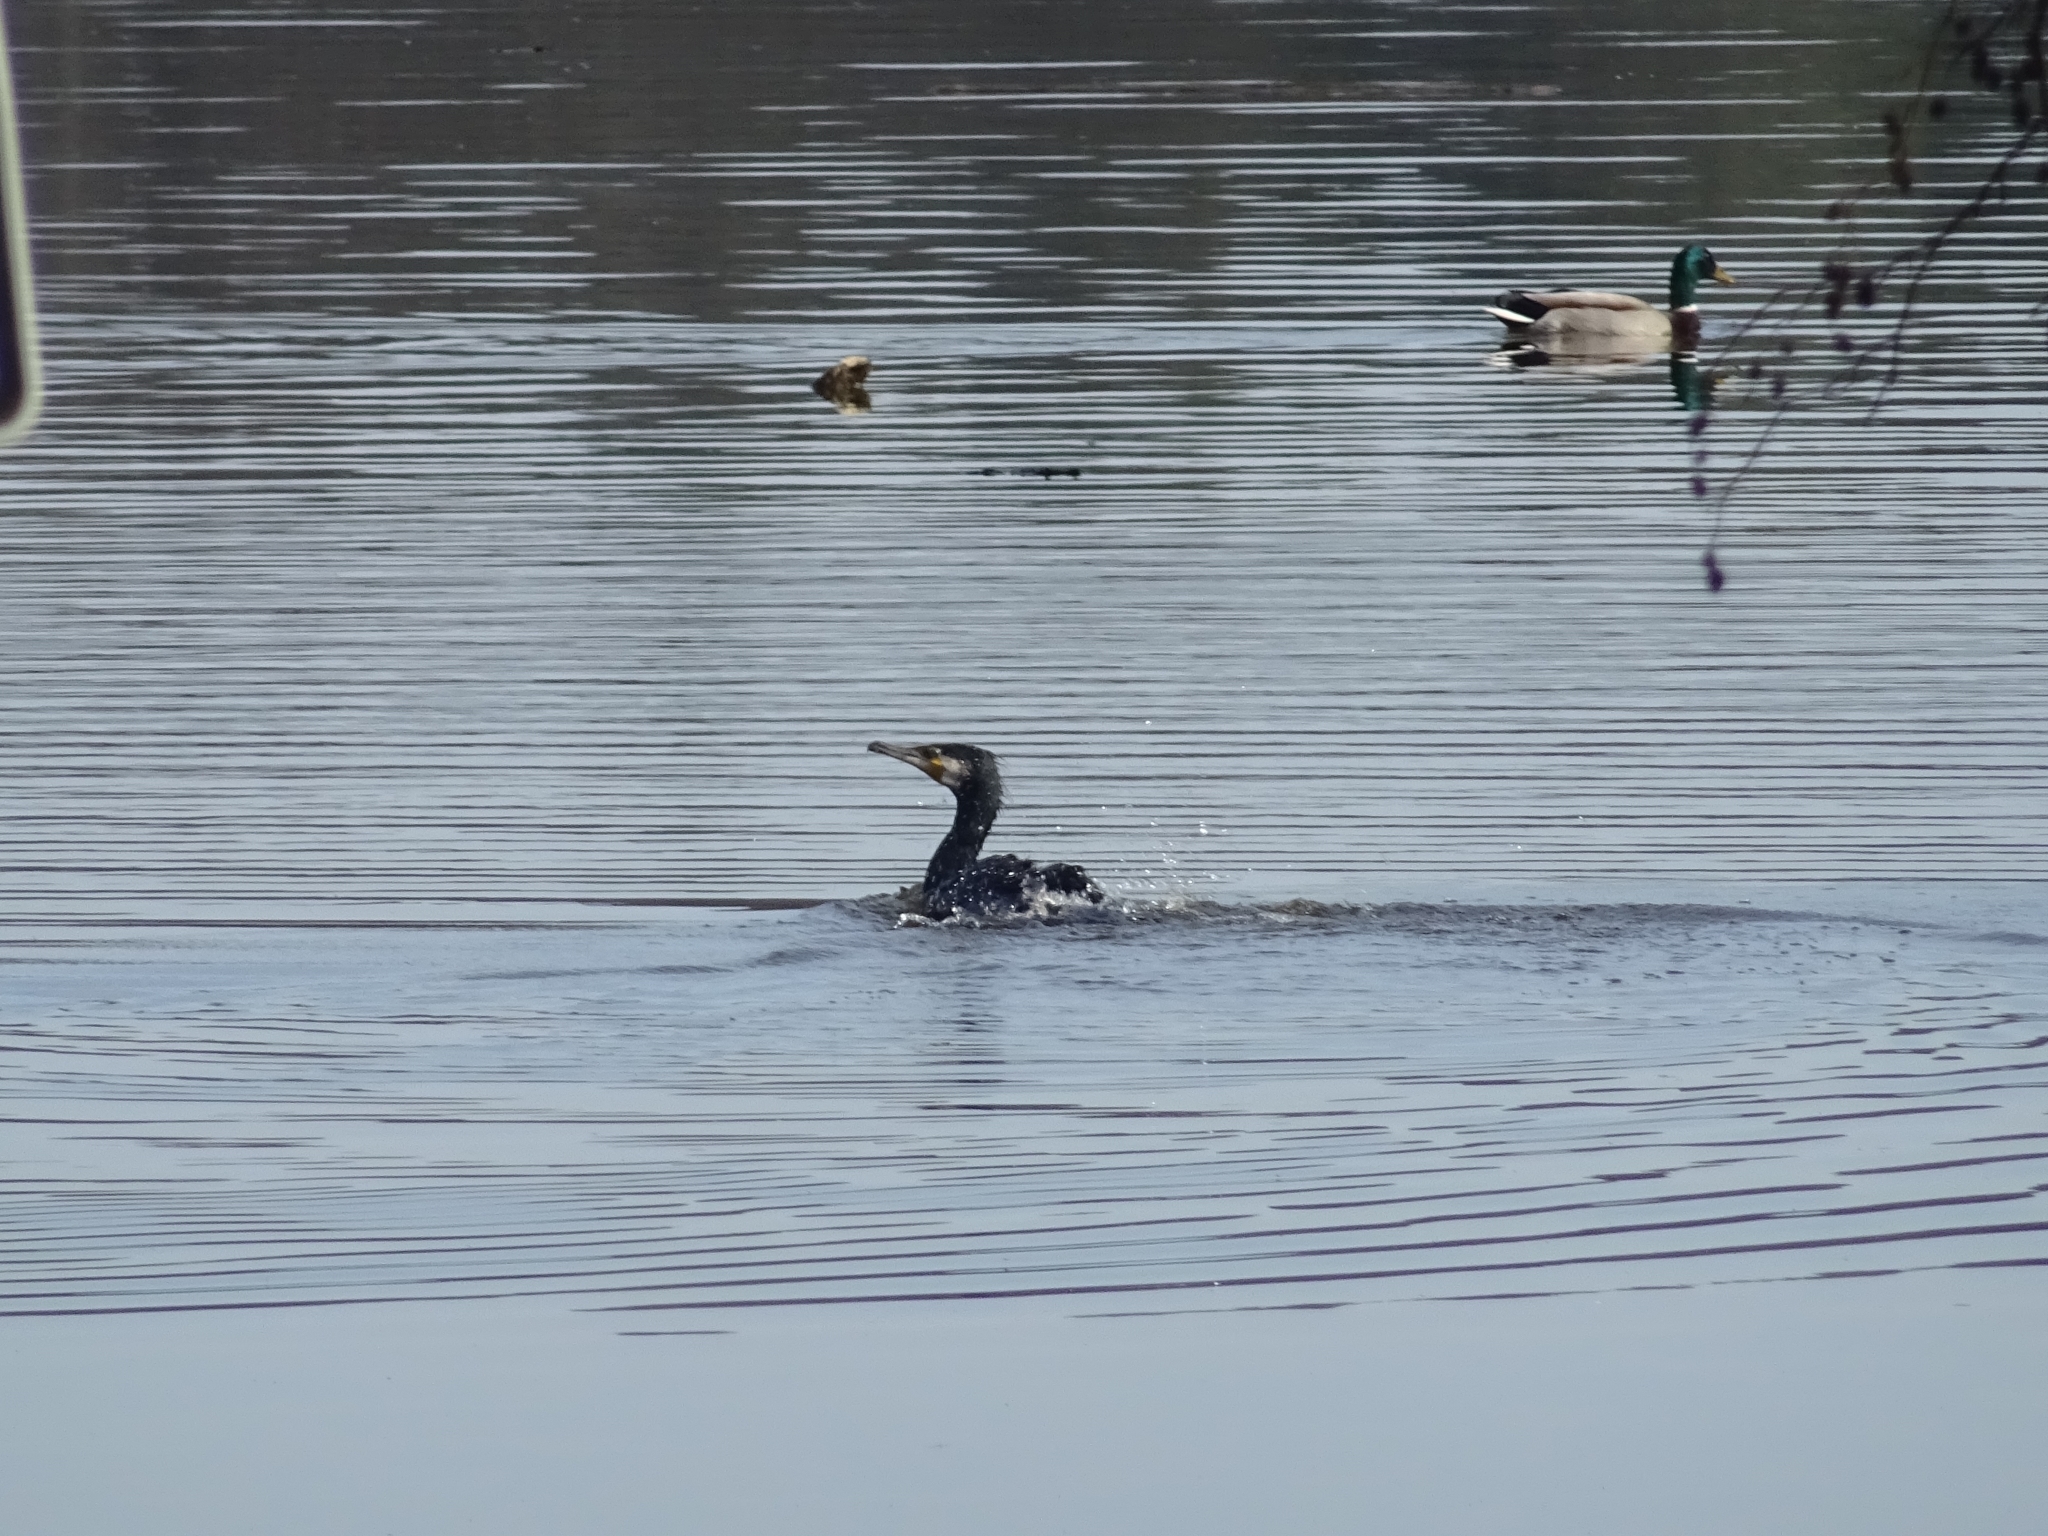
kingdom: Animalia
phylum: Chordata
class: Aves
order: Suliformes
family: Phalacrocoracidae
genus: Phalacrocorax
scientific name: Phalacrocorax carbo
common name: Great cormorant
